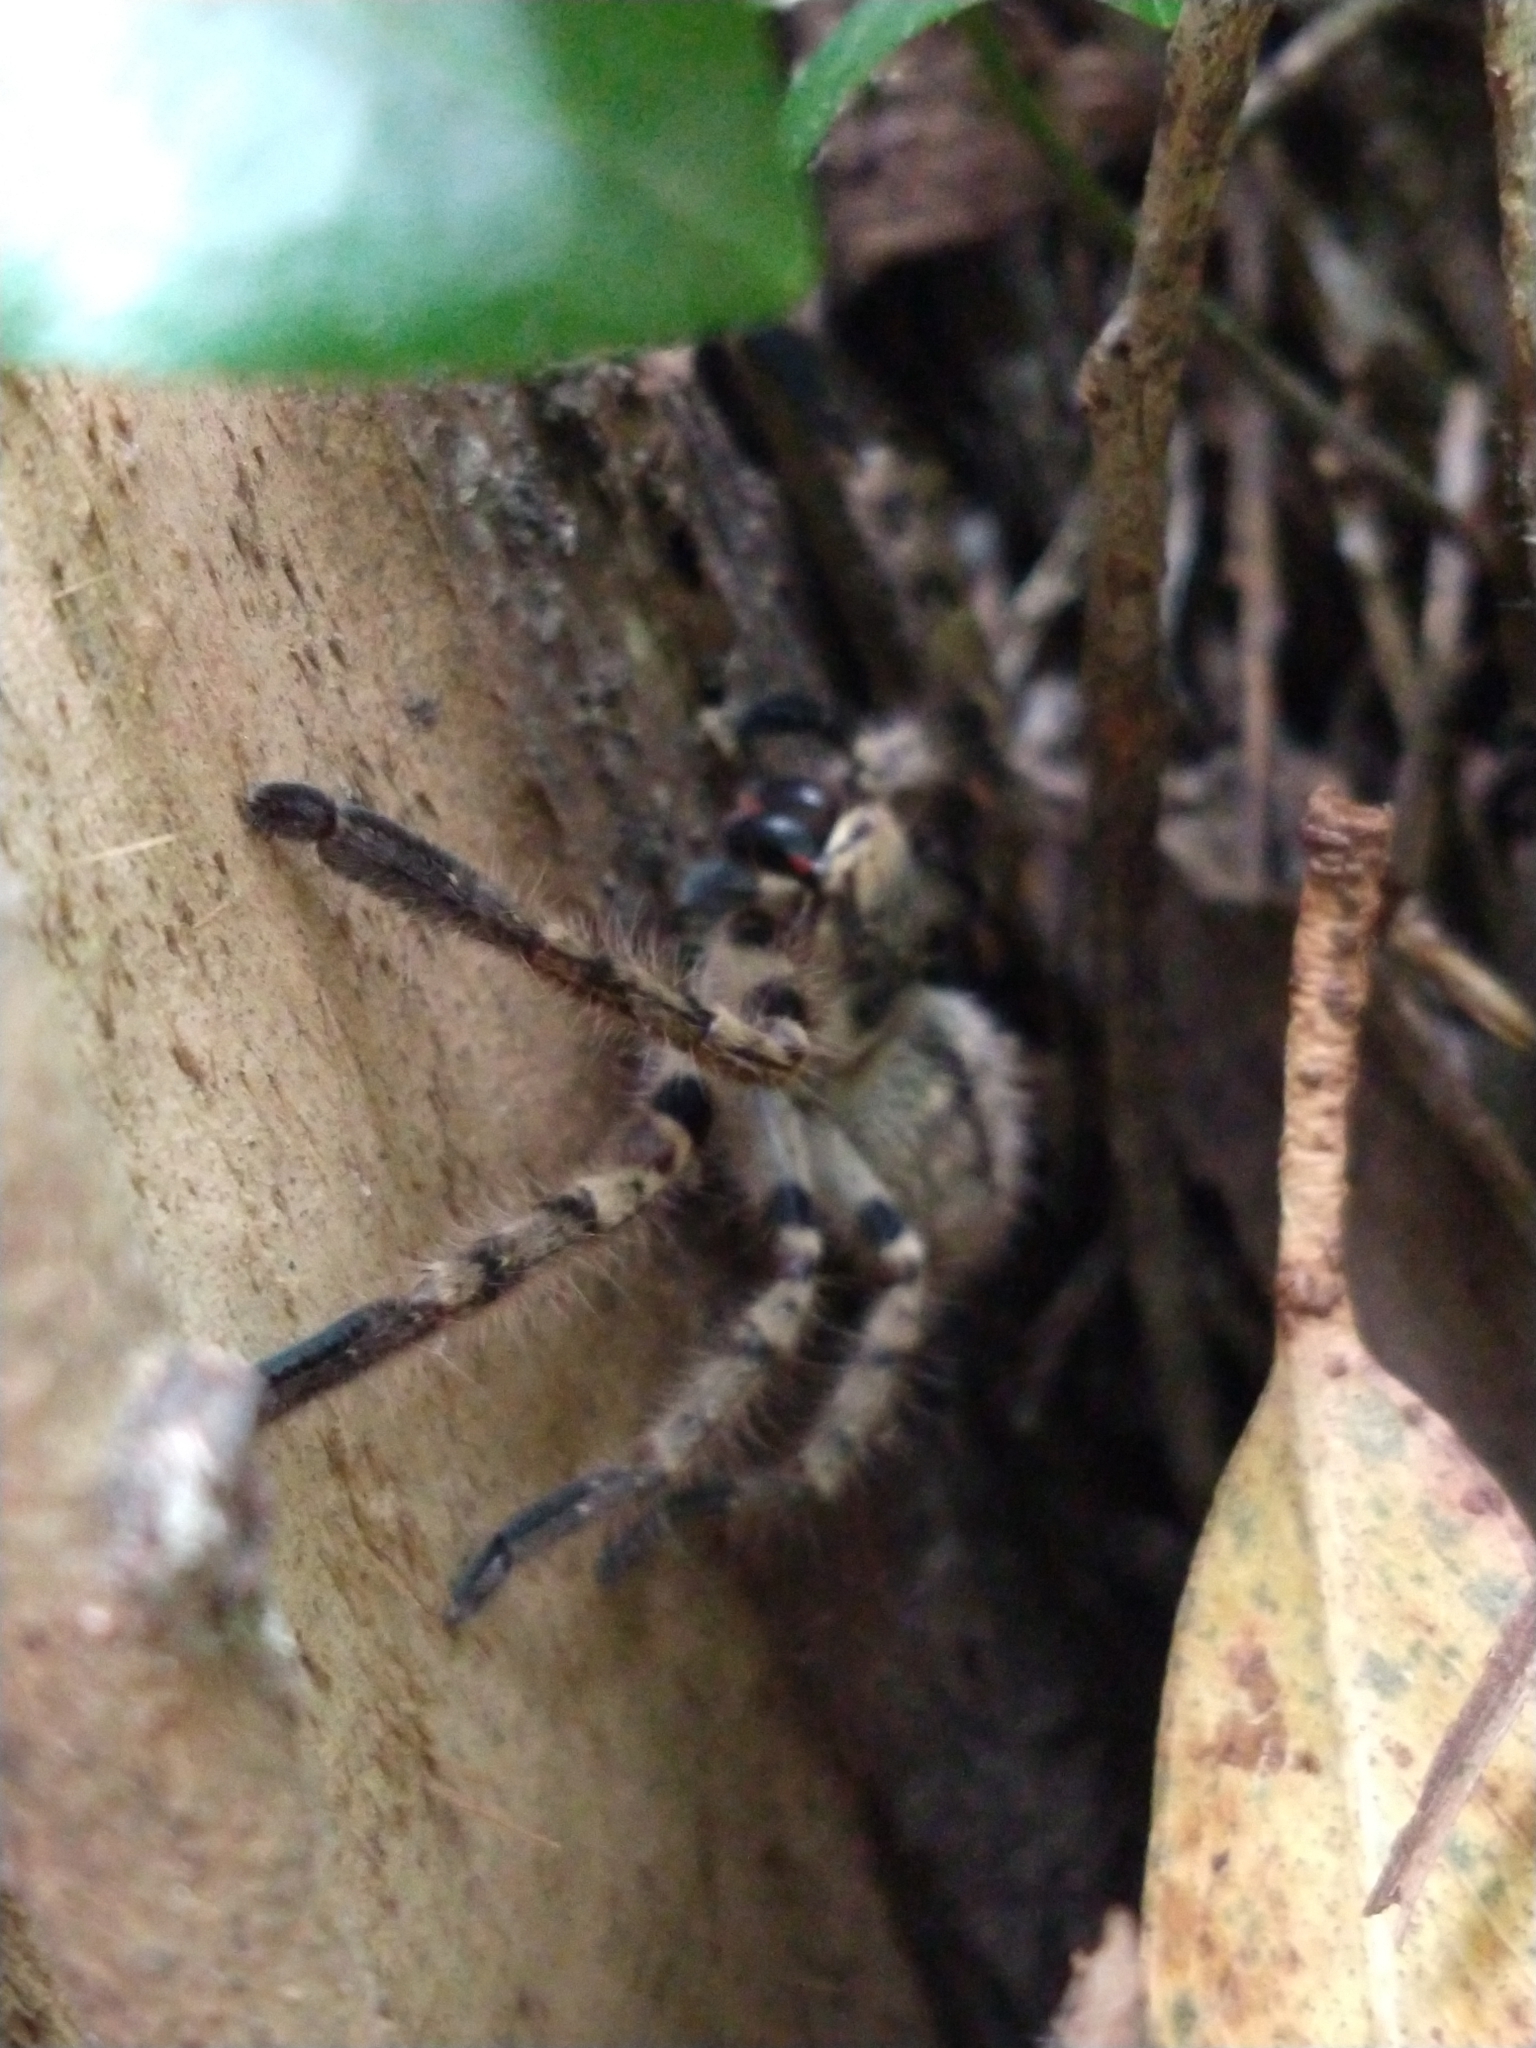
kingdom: Animalia
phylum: Arthropoda
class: Arachnida
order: Araneae
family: Sparassidae
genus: Polybetes
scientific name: Polybetes pythagoricus
